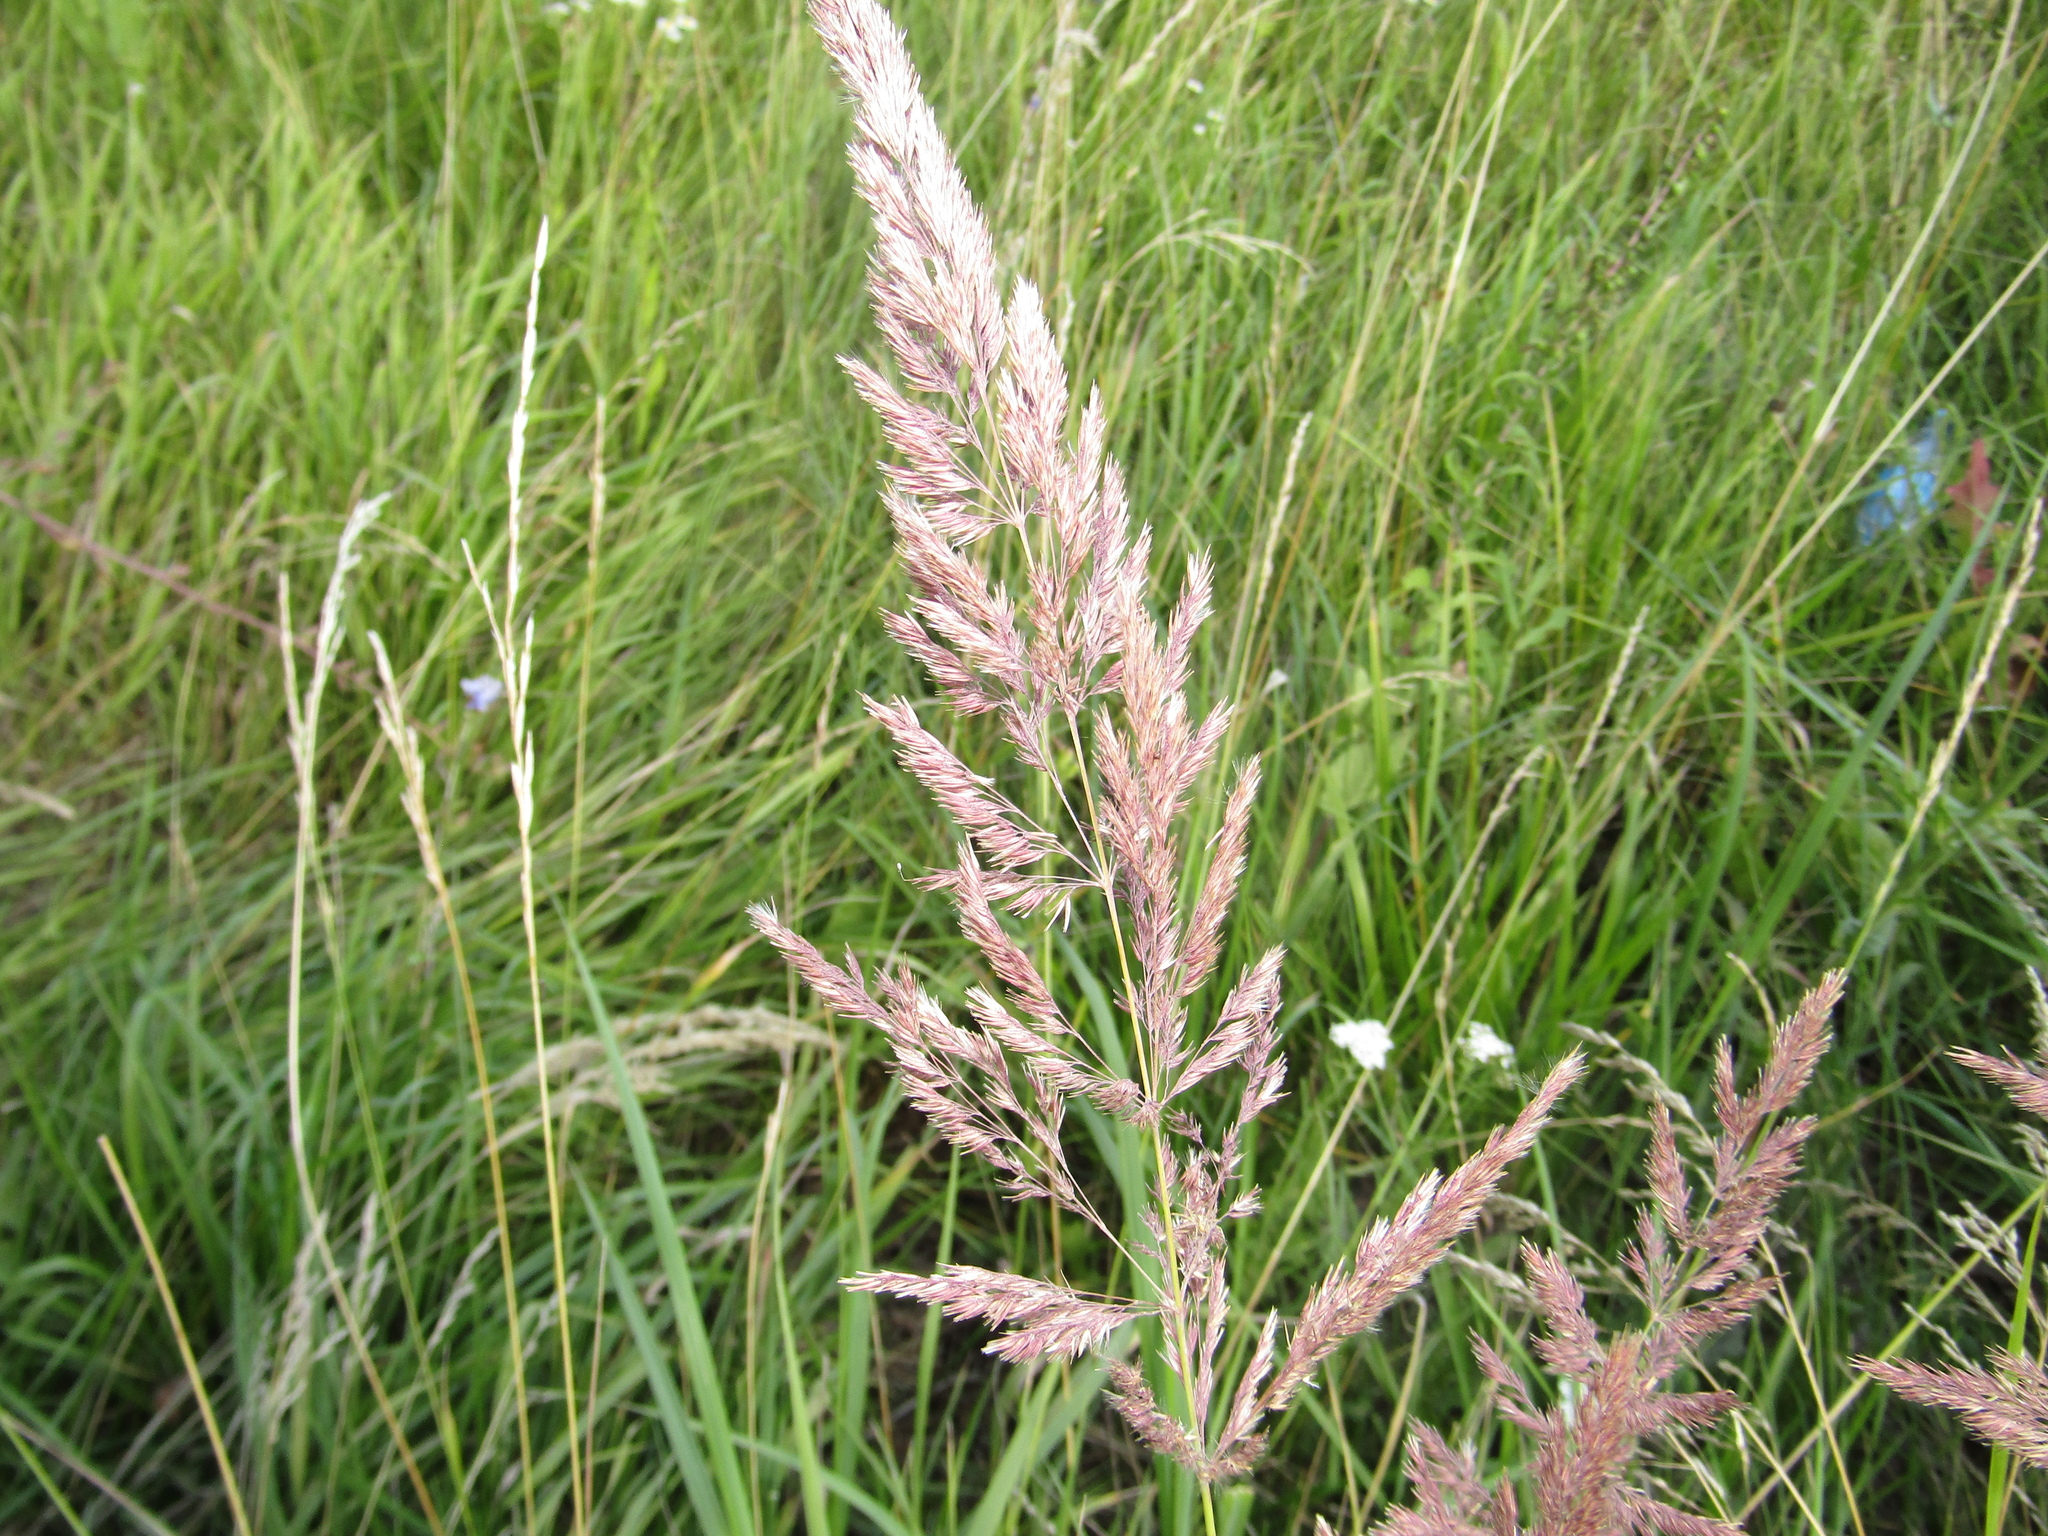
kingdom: Plantae
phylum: Tracheophyta
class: Liliopsida
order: Poales
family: Poaceae
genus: Calamagrostis
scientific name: Calamagrostis epigejos
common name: Wood small-reed
